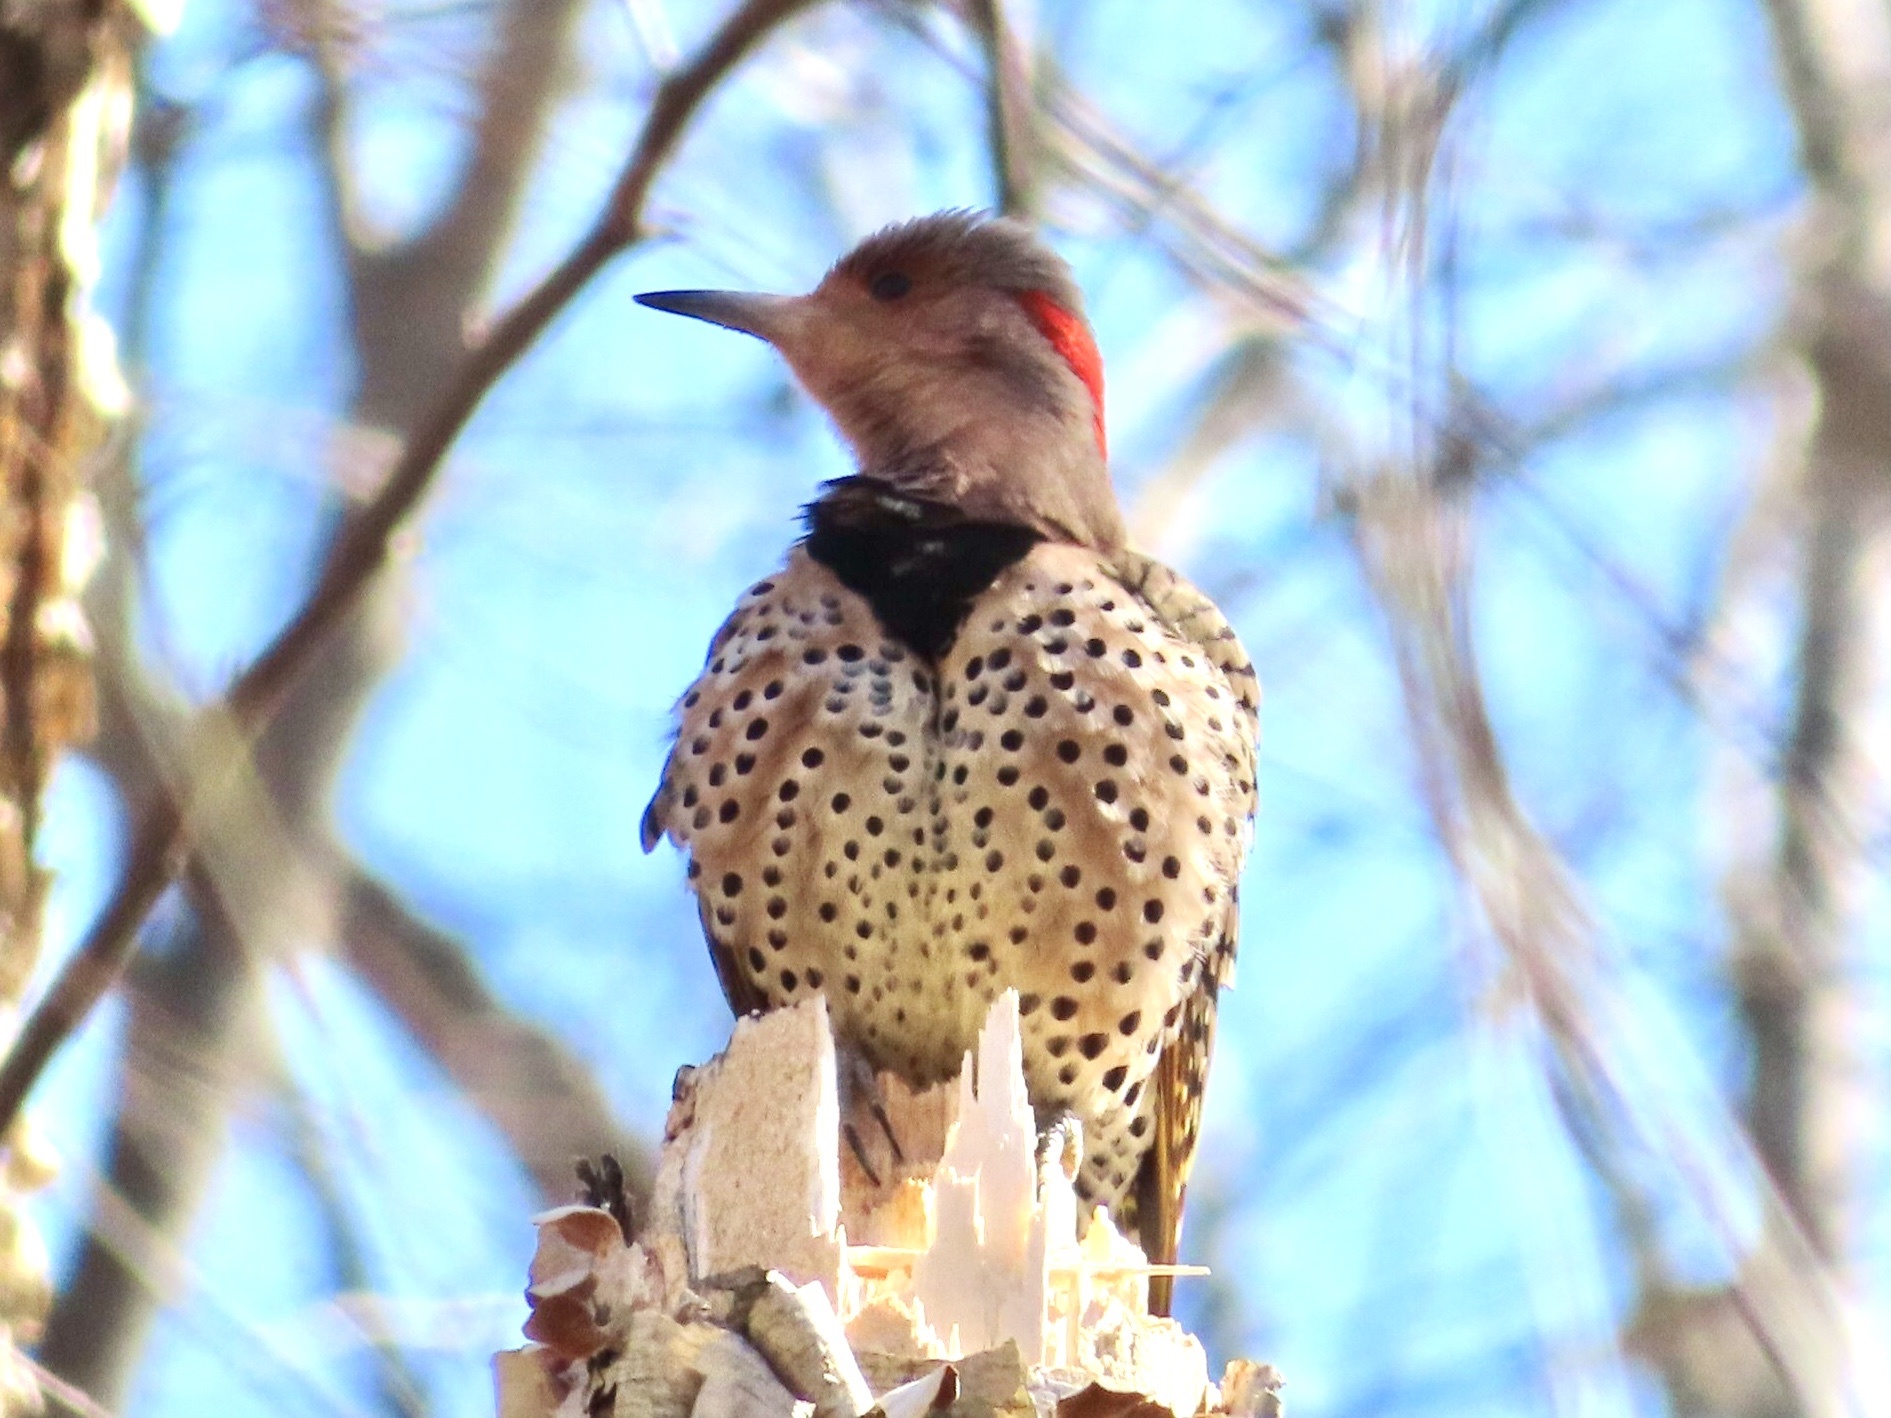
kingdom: Animalia
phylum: Chordata
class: Aves
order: Piciformes
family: Picidae
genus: Colaptes
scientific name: Colaptes auratus
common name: Northern flicker
